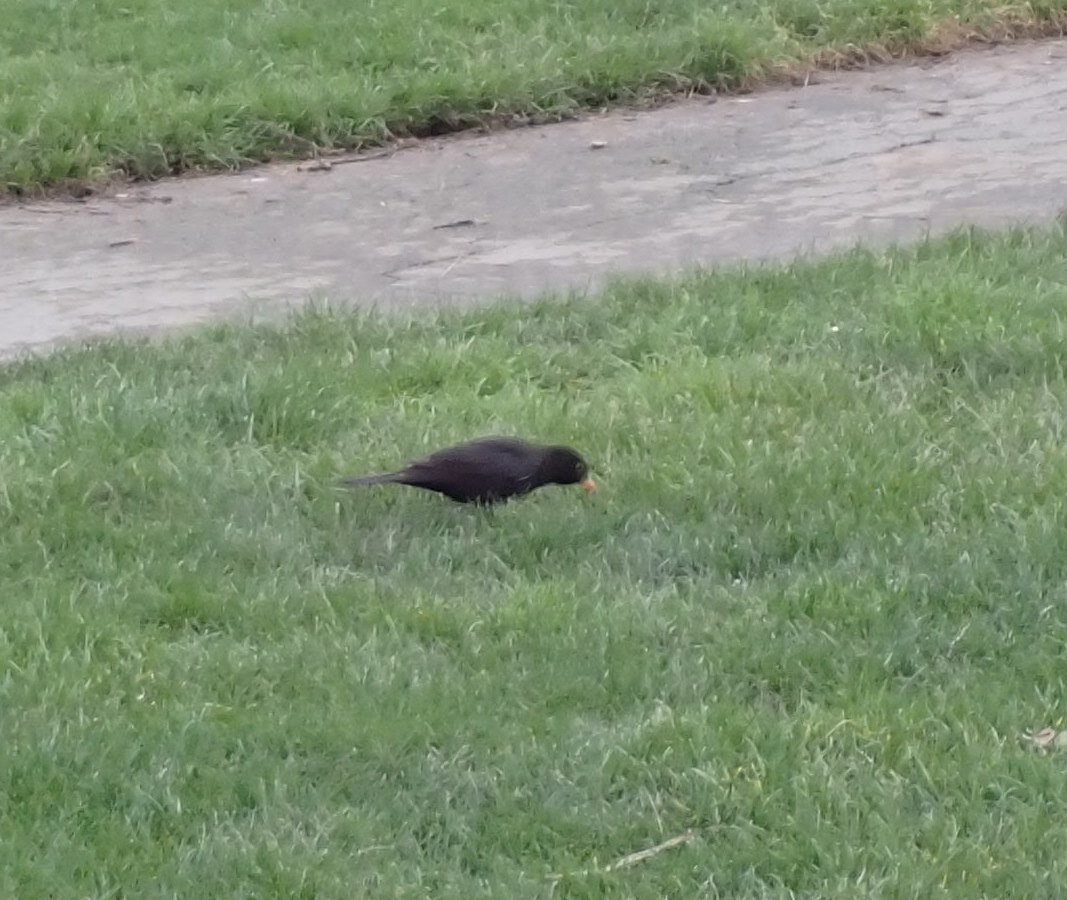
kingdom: Animalia
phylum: Chordata
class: Aves
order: Passeriformes
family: Turdidae
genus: Turdus
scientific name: Turdus merula
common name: Common blackbird
